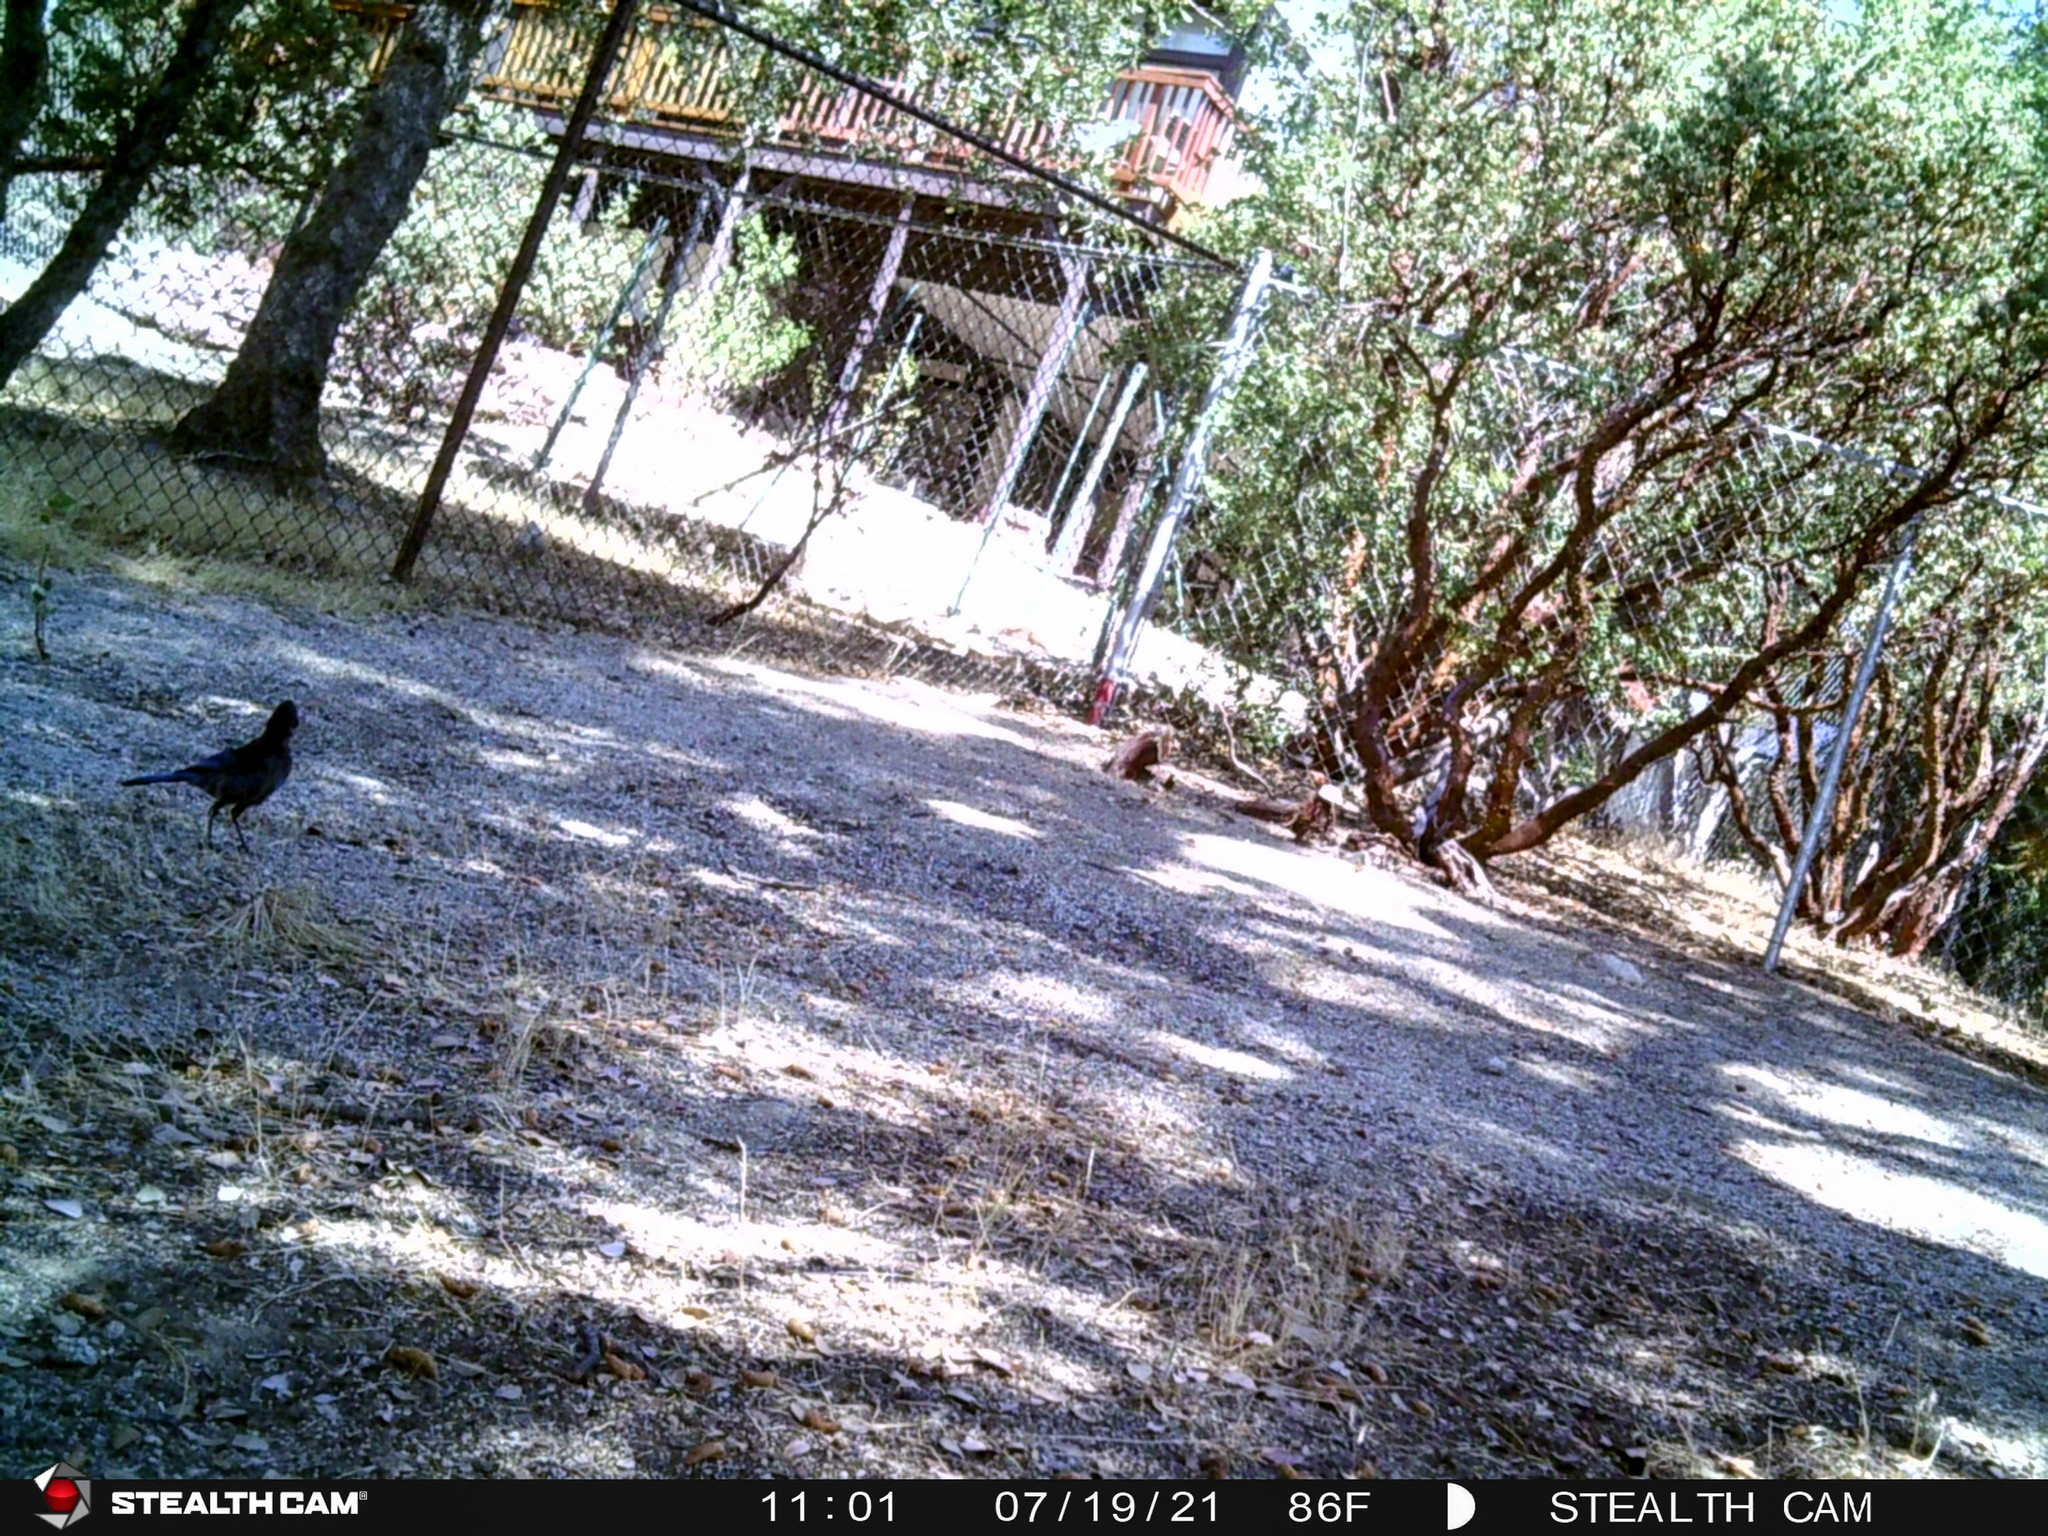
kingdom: Animalia
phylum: Chordata
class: Aves
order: Passeriformes
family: Corvidae
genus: Cyanocitta
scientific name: Cyanocitta stelleri
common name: Steller's jay
